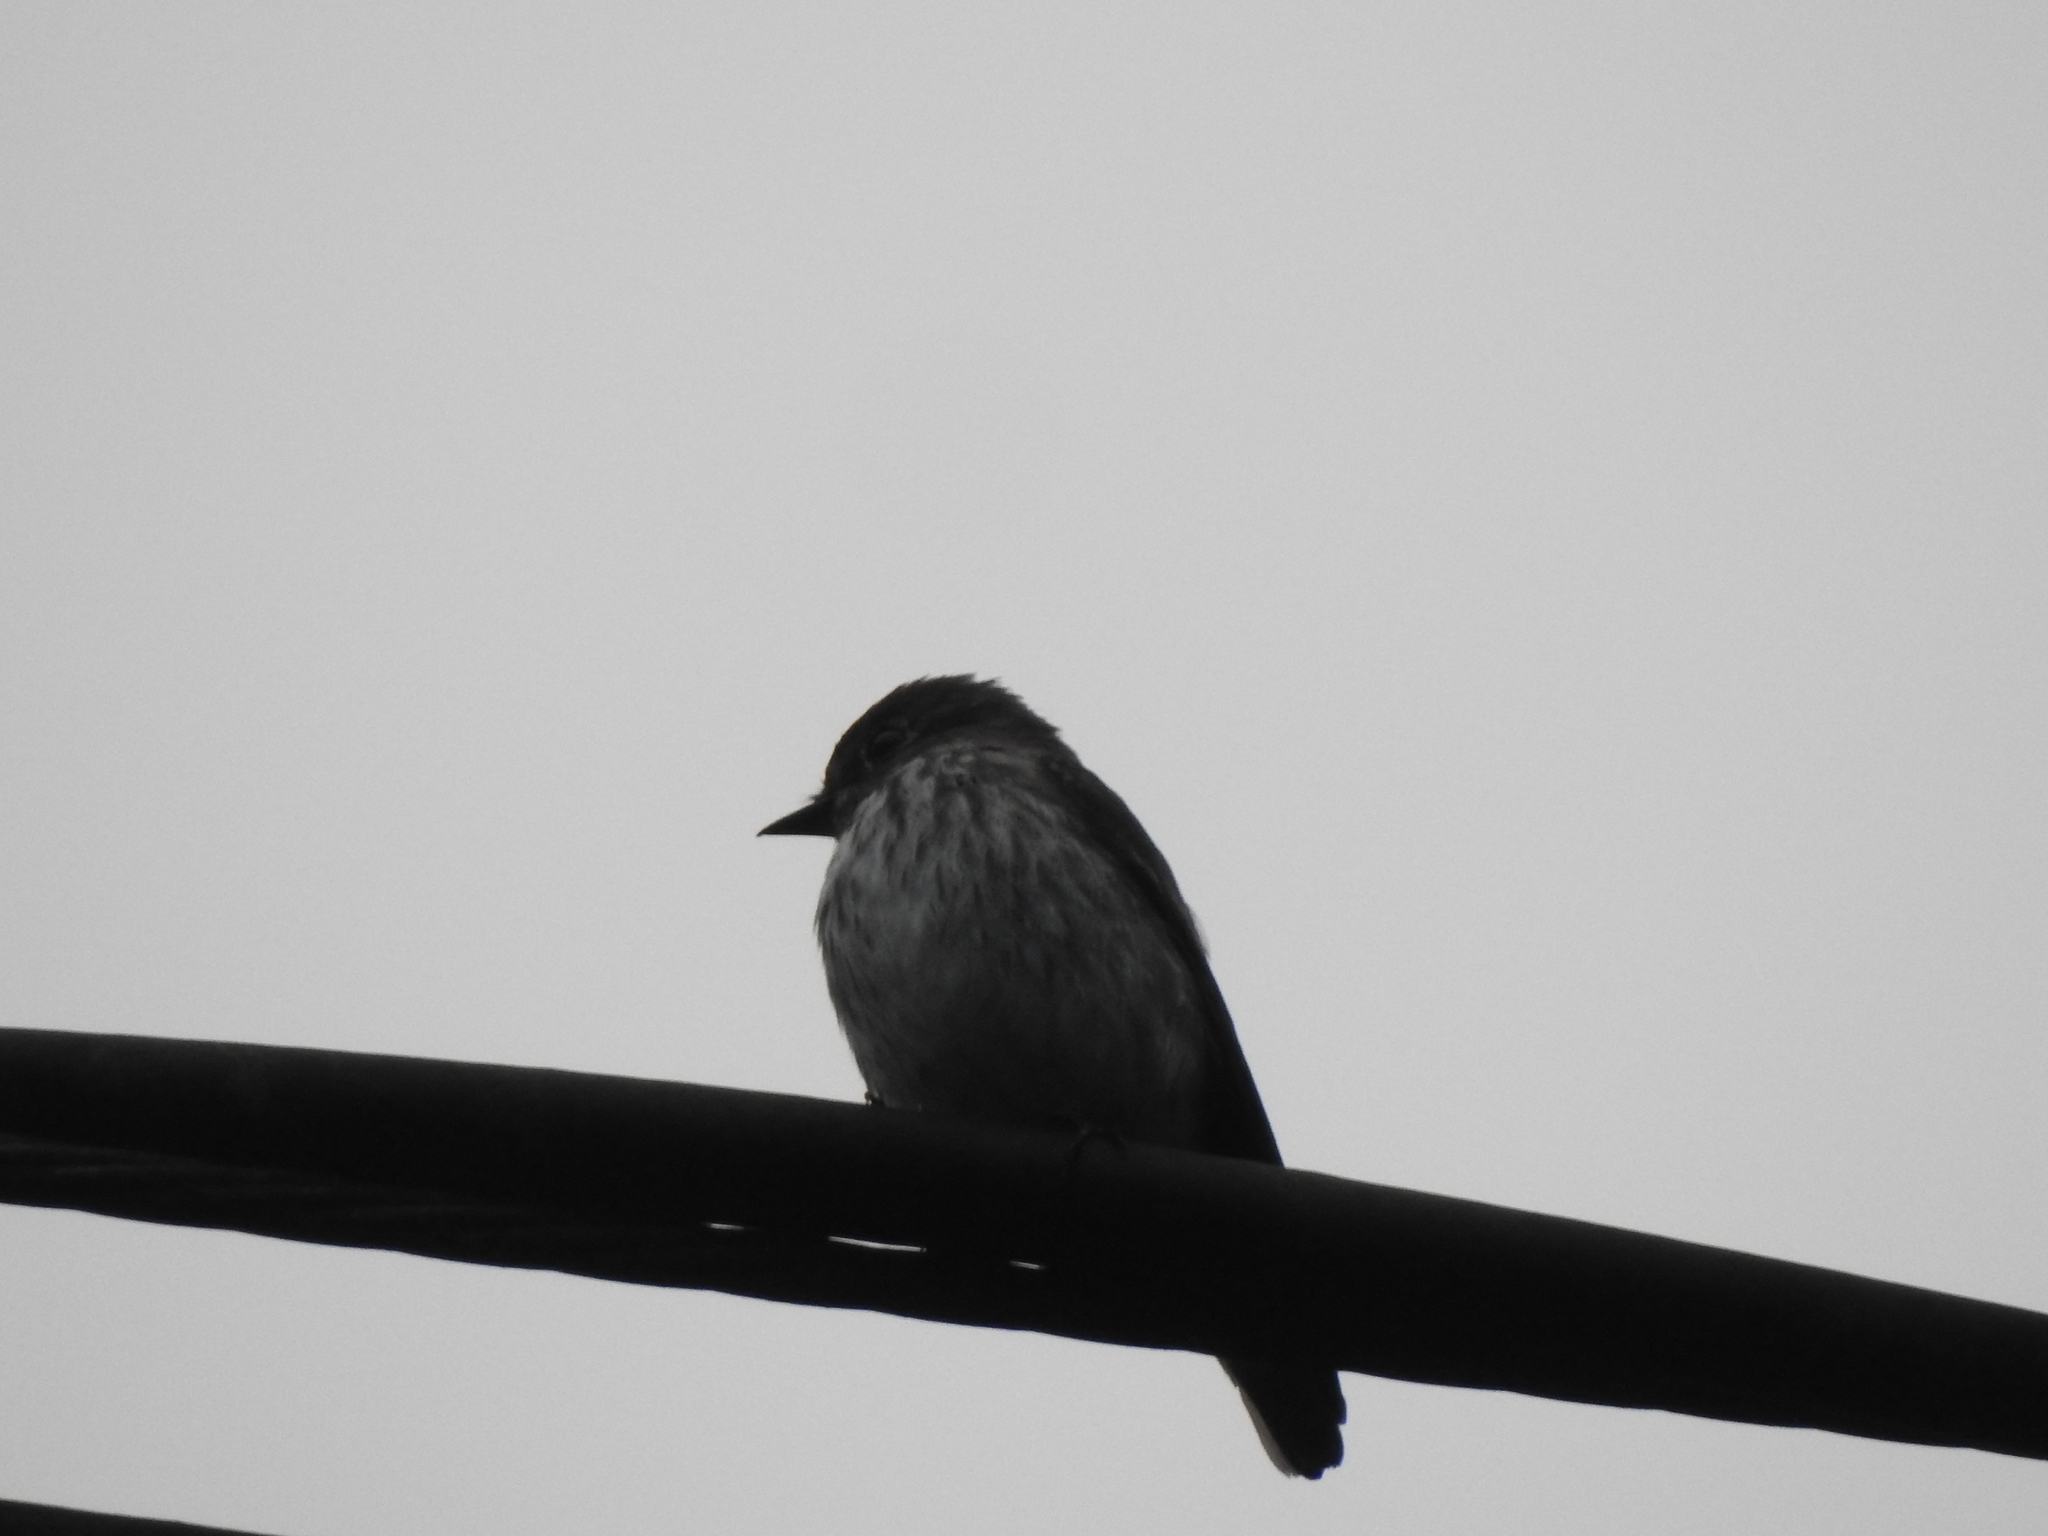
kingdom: Animalia
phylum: Chordata
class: Aves
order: Passeriformes
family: Muscicapidae
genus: Muscicapa
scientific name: Muscicapa griseisticta
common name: Gray-streaked flycatcher
